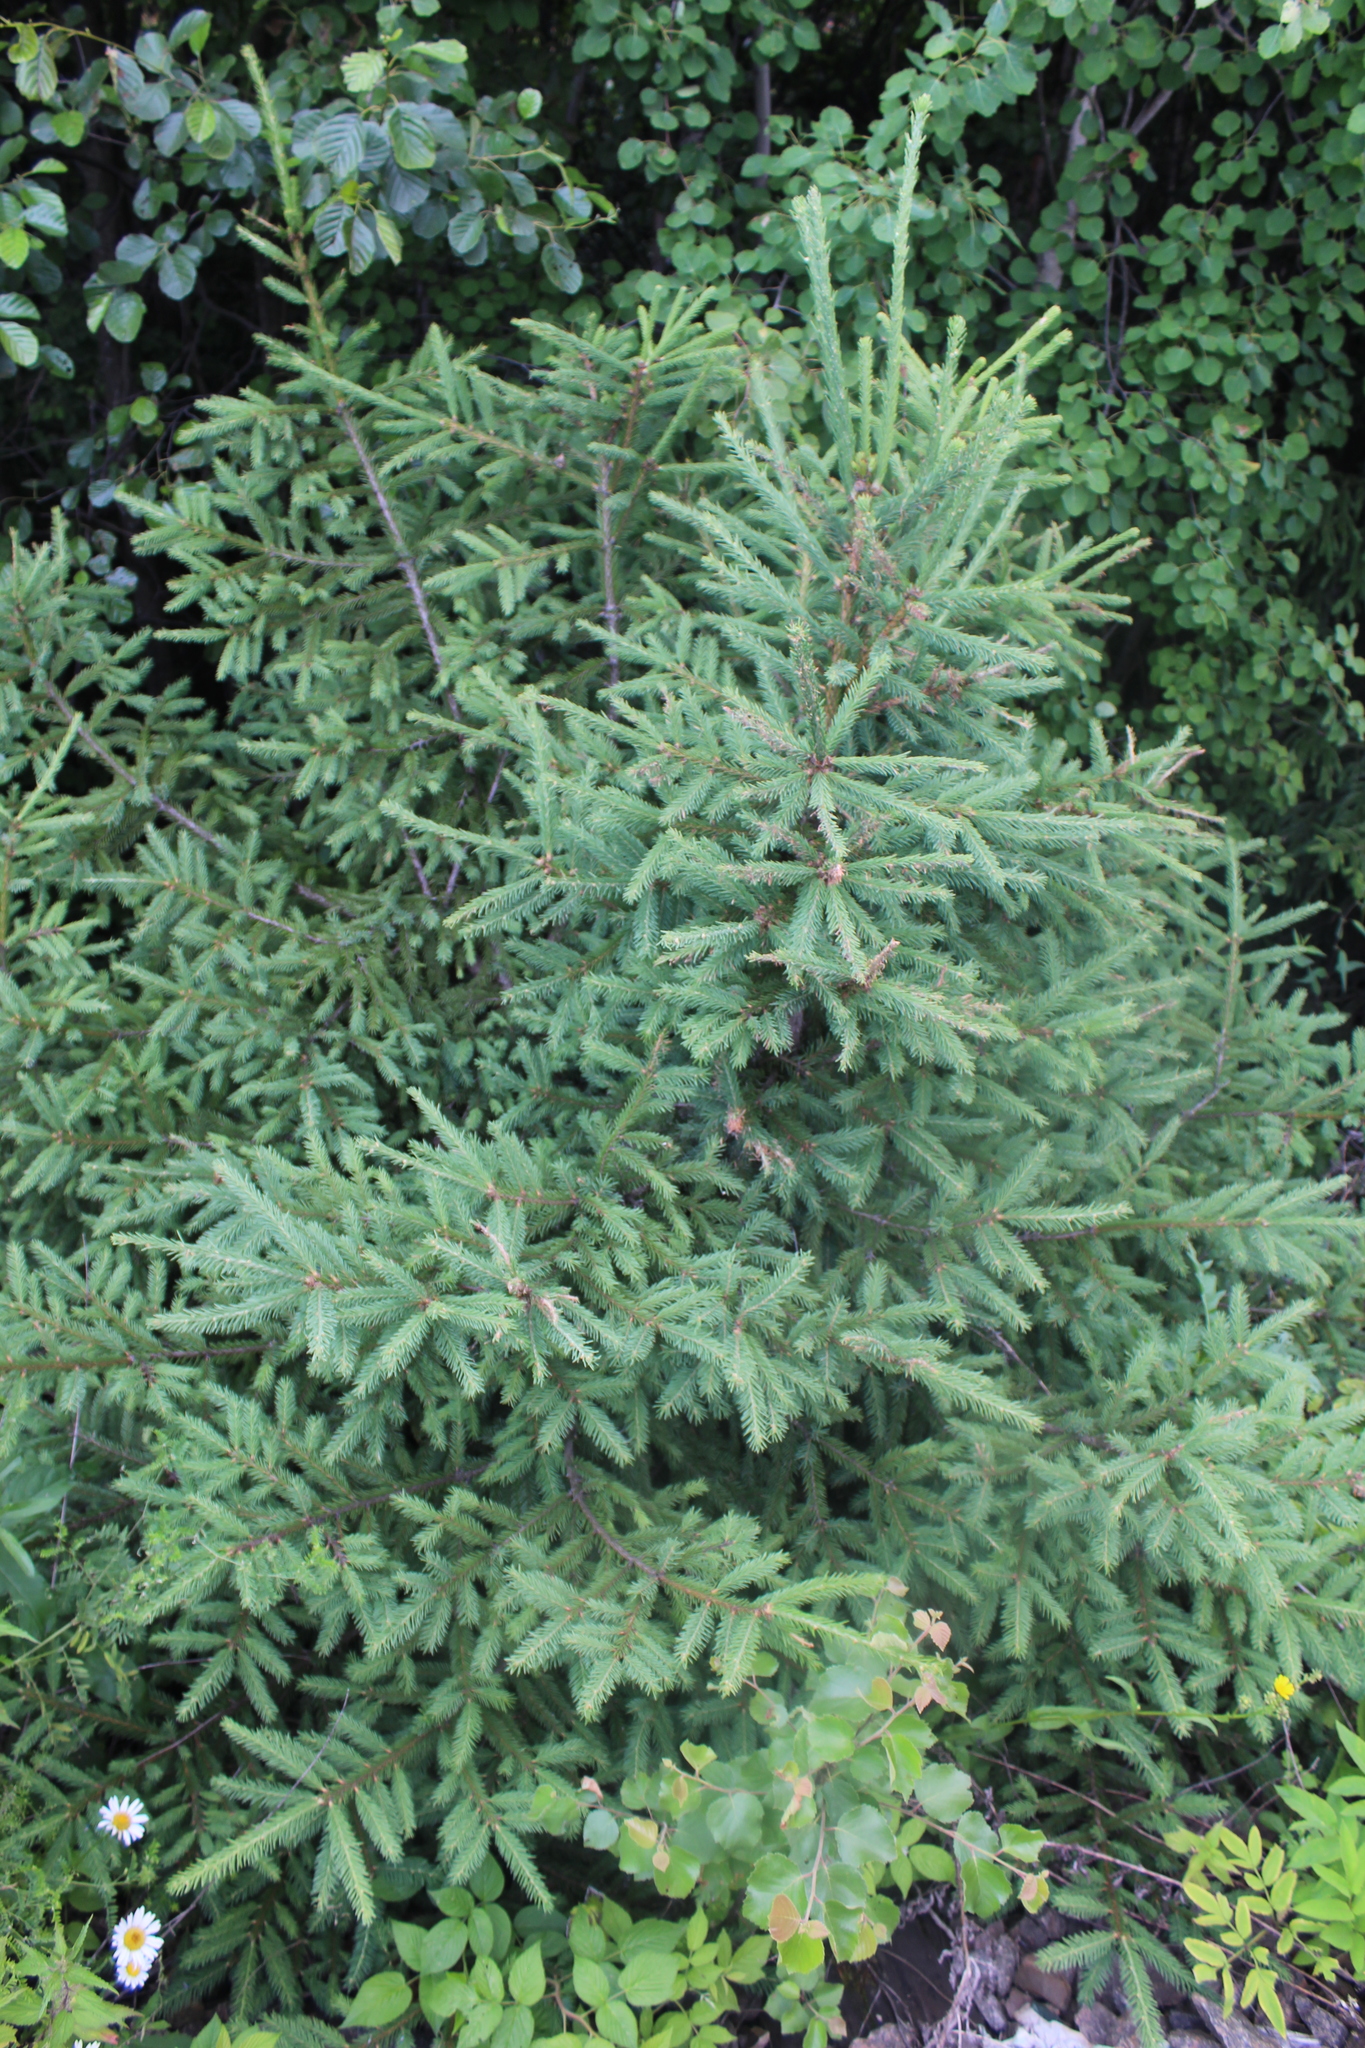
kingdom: Plantae
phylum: Tracheophyta
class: Pinopsida
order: Pinales
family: Pinaceae
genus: Picea
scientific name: Picea abies
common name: Norway spruce
